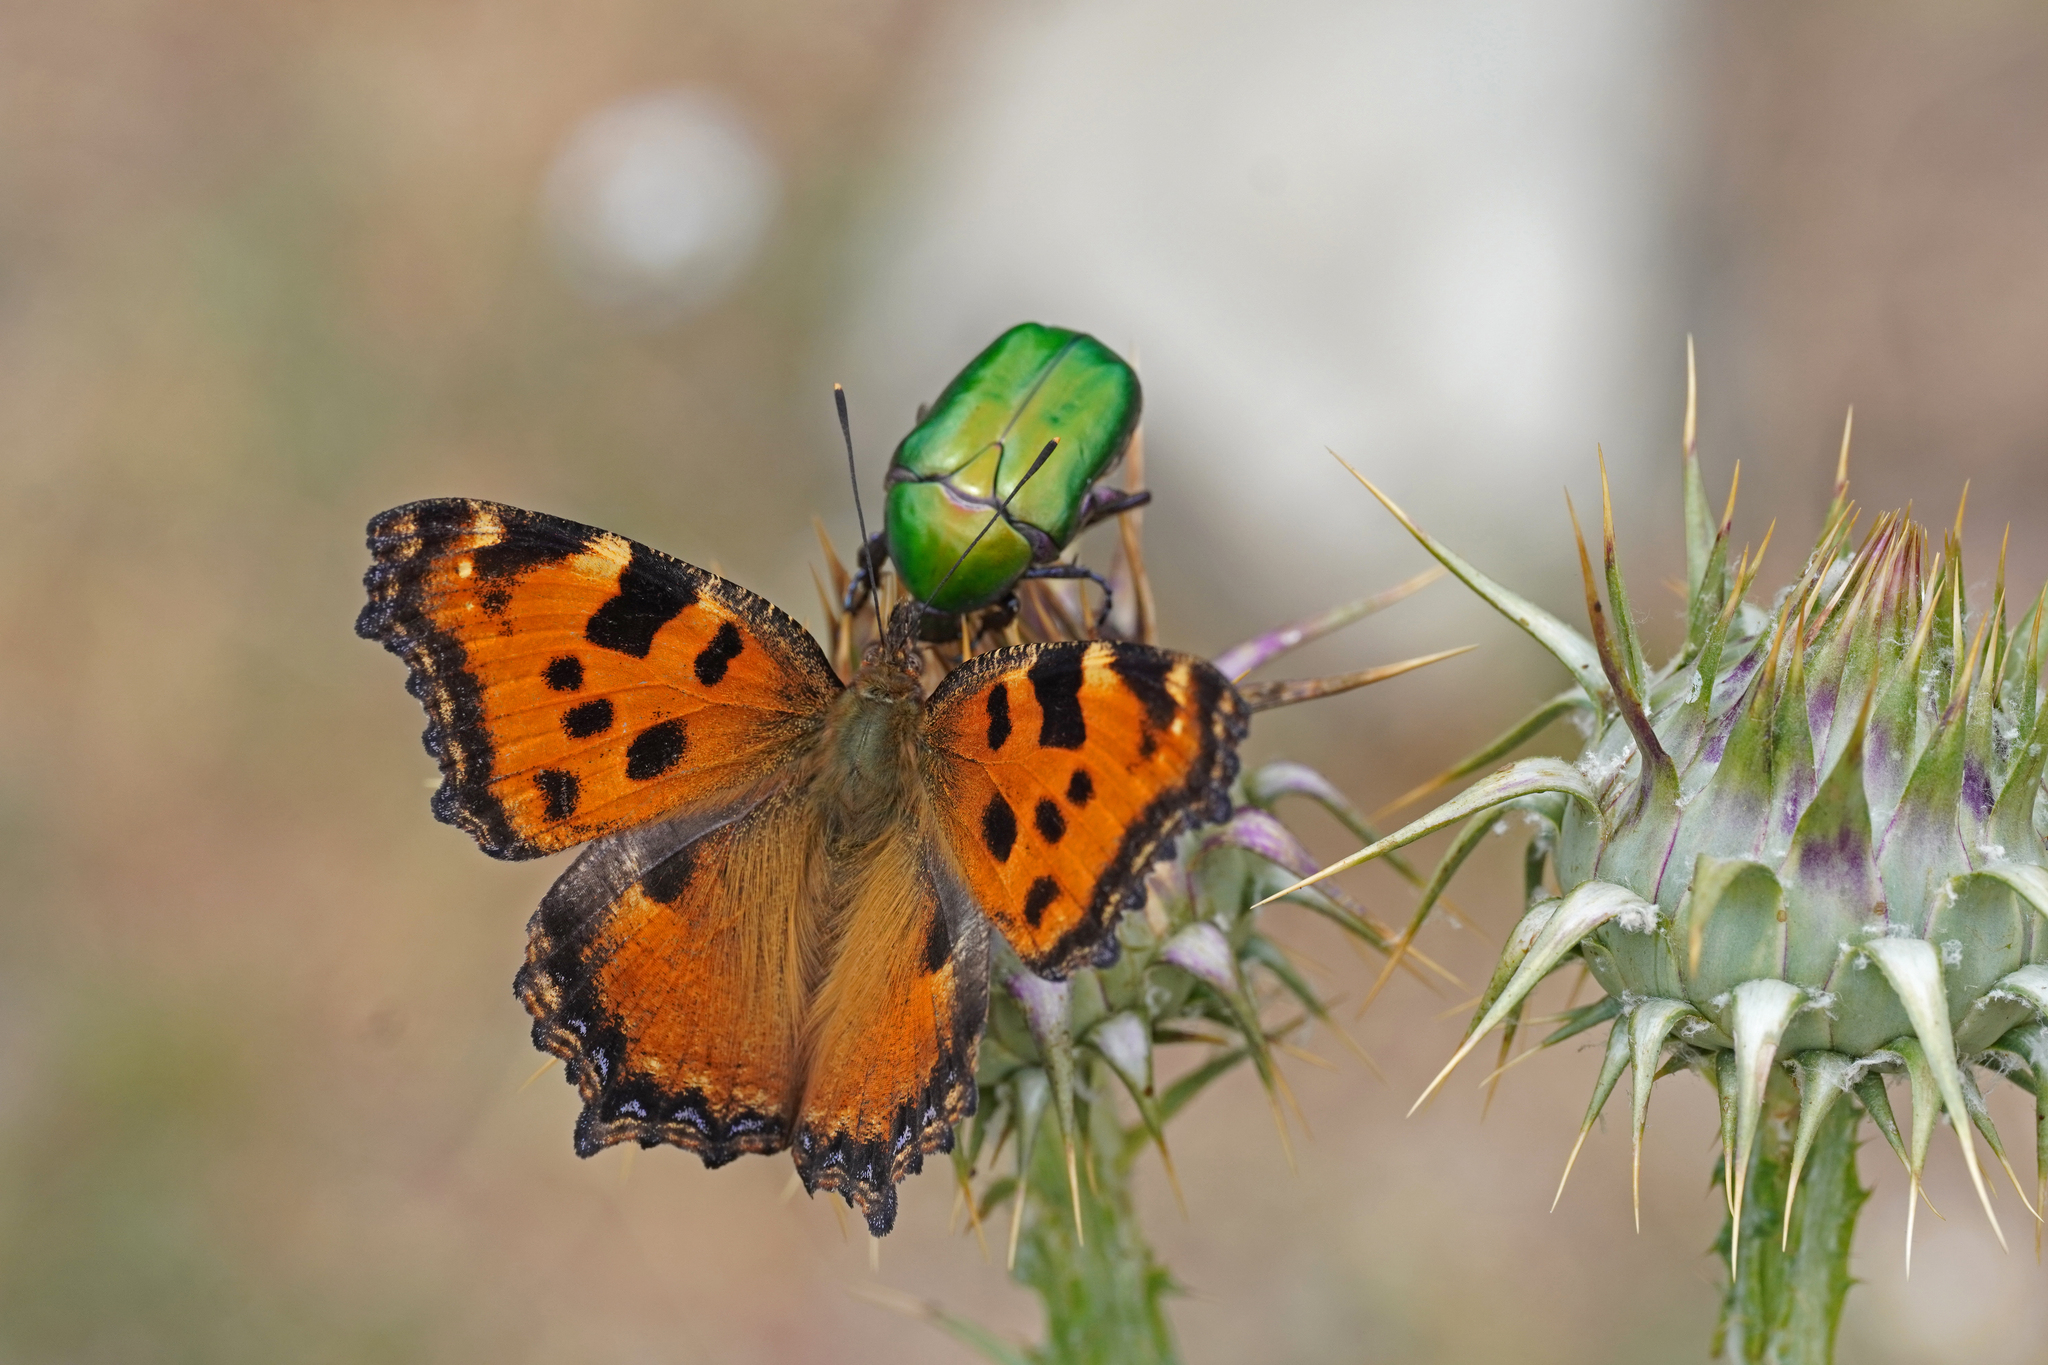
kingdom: Animalia
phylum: Arthropoda
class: Insecta
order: Lepidoptera
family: Nymphalidae
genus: Nymphalis
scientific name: Nymphalis polychloros
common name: Large tortoiseshell
